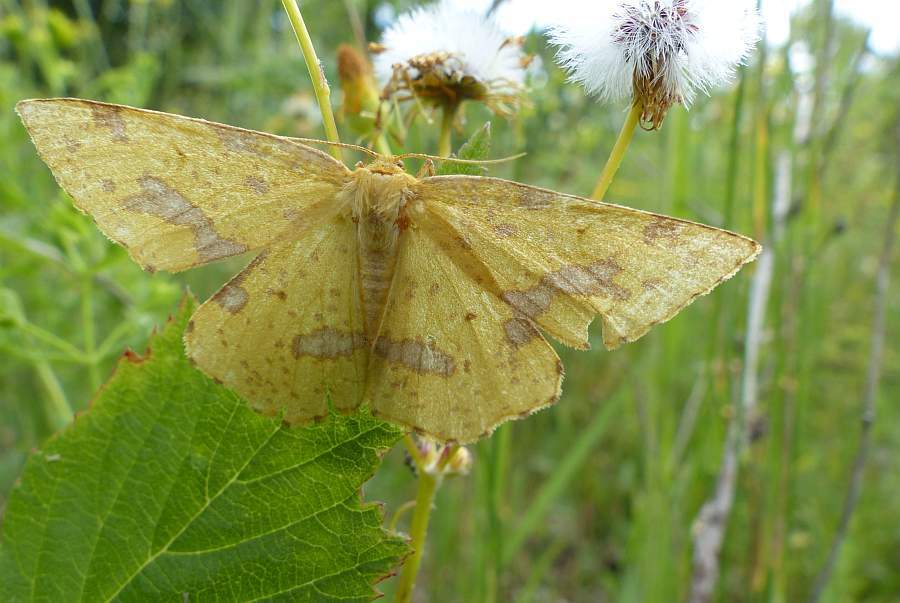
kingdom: Animalia
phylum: Arthropoda
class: Insecta
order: Lepidoptera
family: Geometridae
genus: Xanthotype
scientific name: Xanthotype
